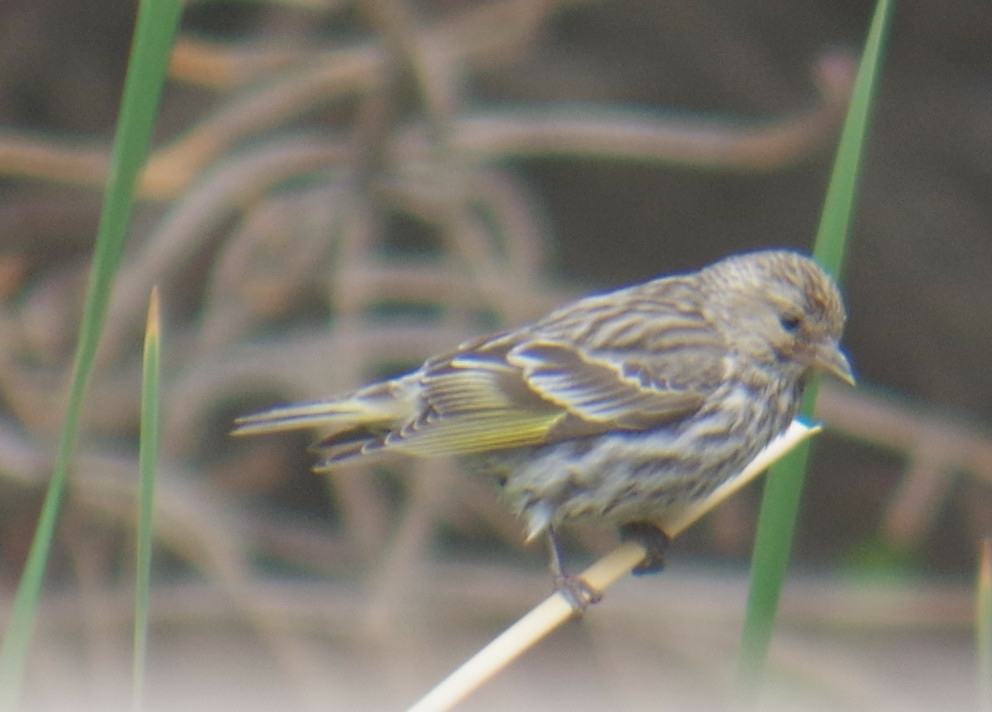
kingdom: Animalia
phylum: Chordata
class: Aves
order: Passeriformes
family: Fringillidae
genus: Spinus
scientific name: Spinus pinus
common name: Pine siskin
